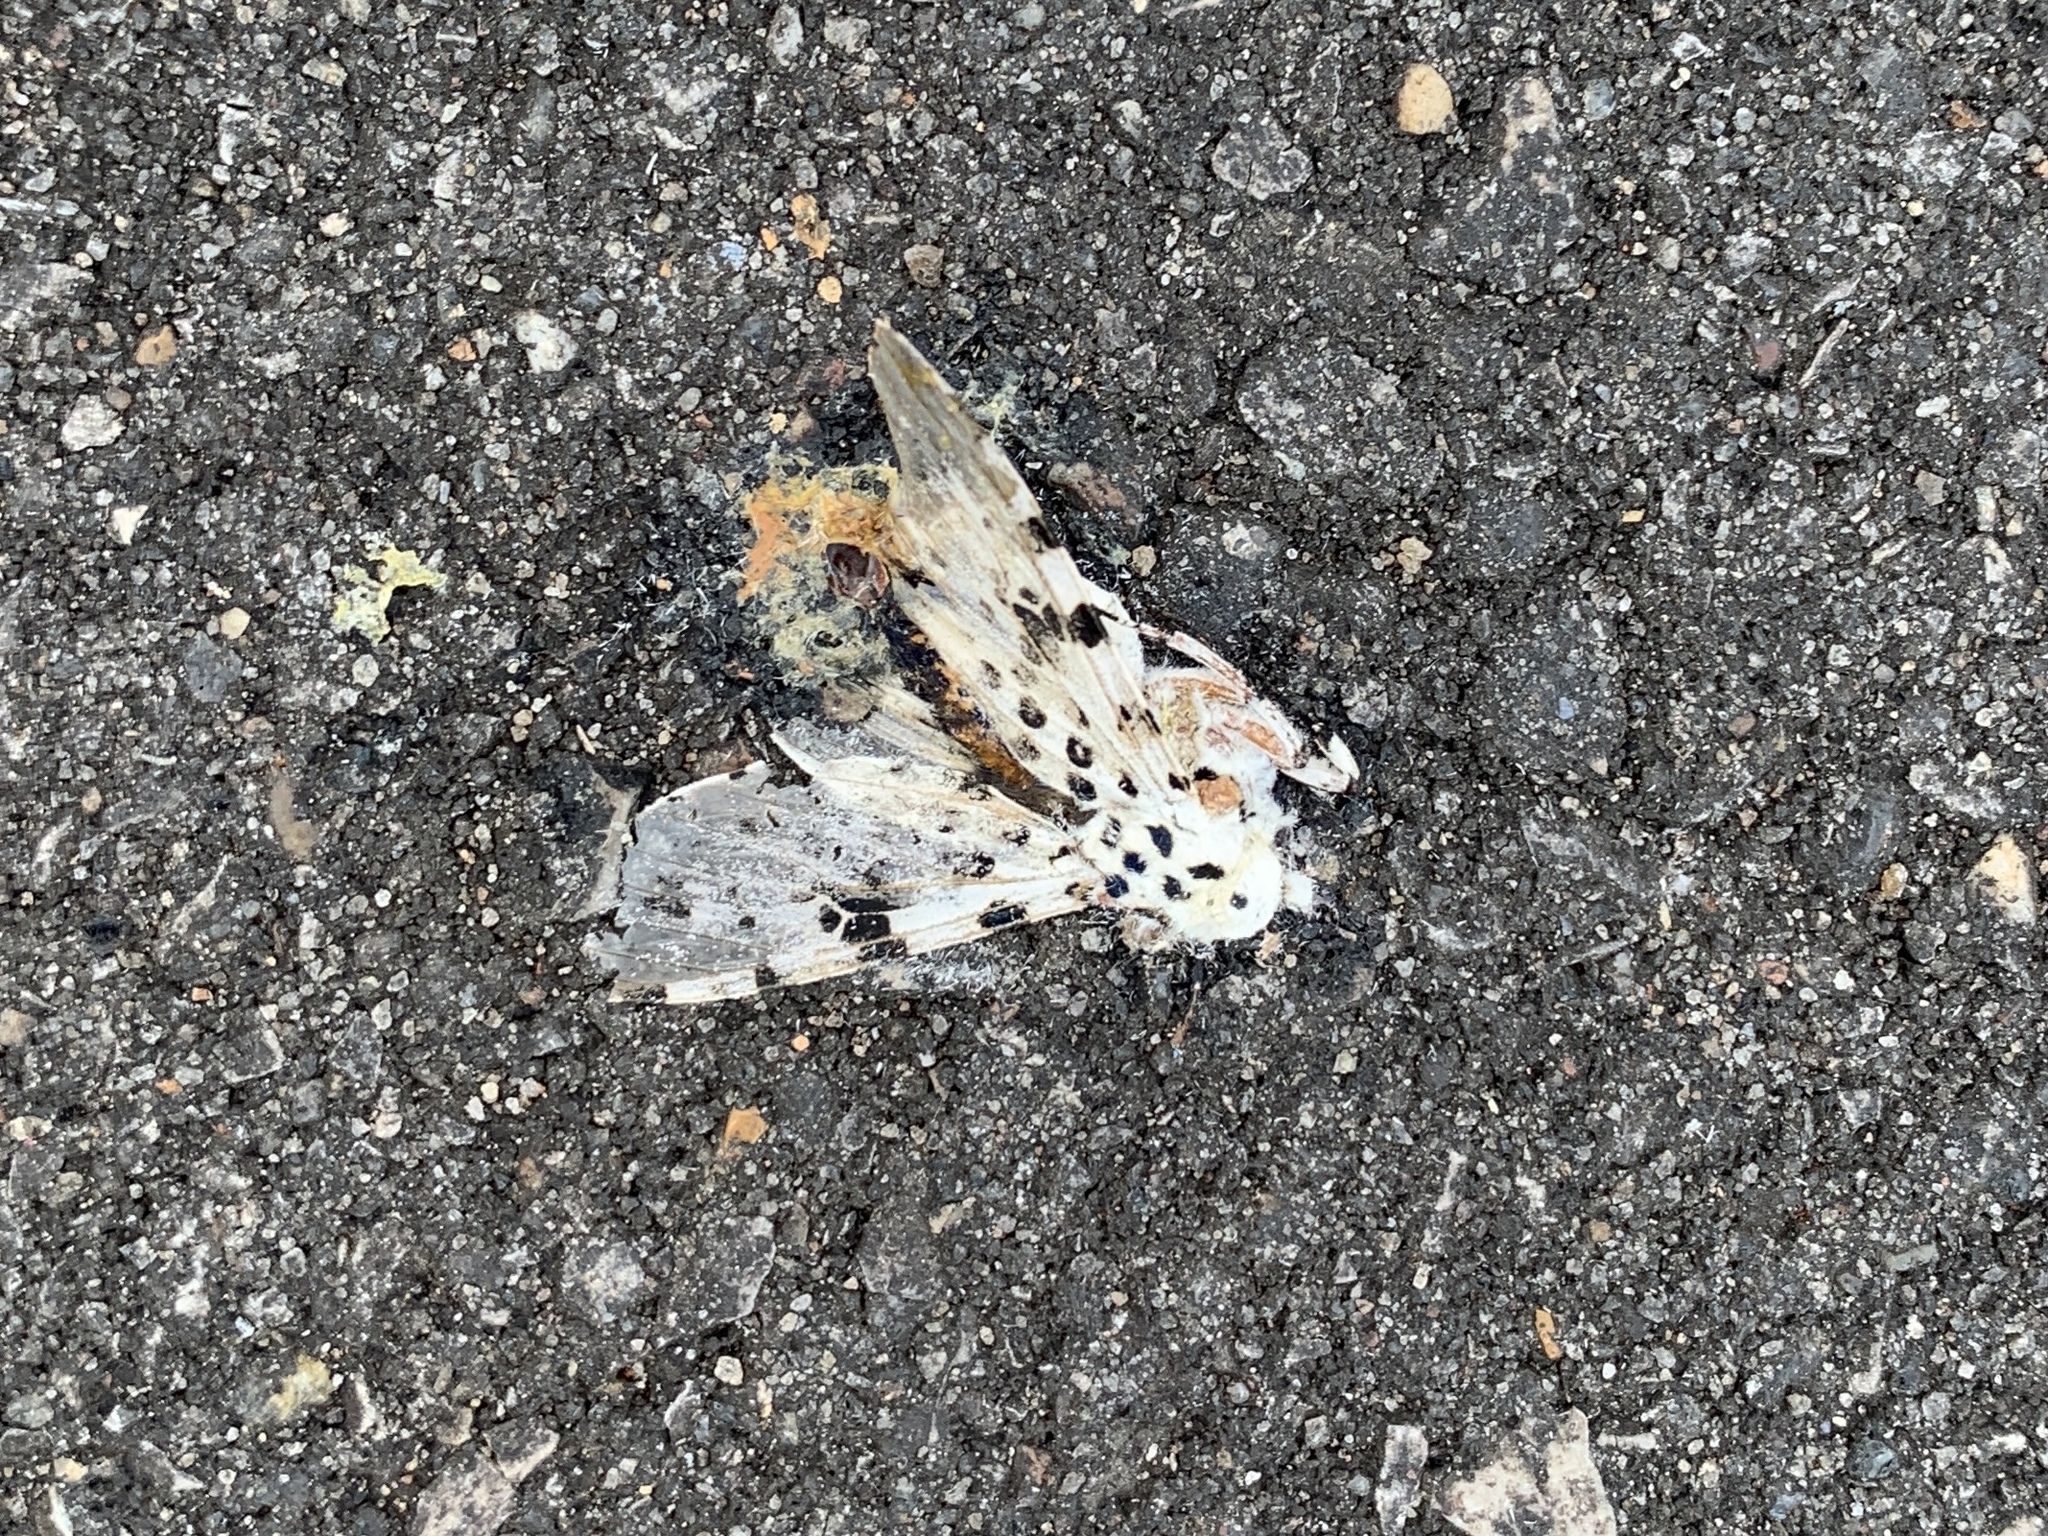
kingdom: Animalia
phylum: Arthropoda
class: Insecta
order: Lepidoptera
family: Erebidae
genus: Hypercompe
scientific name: Hypercompe scribonia
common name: Giant leopard moth
